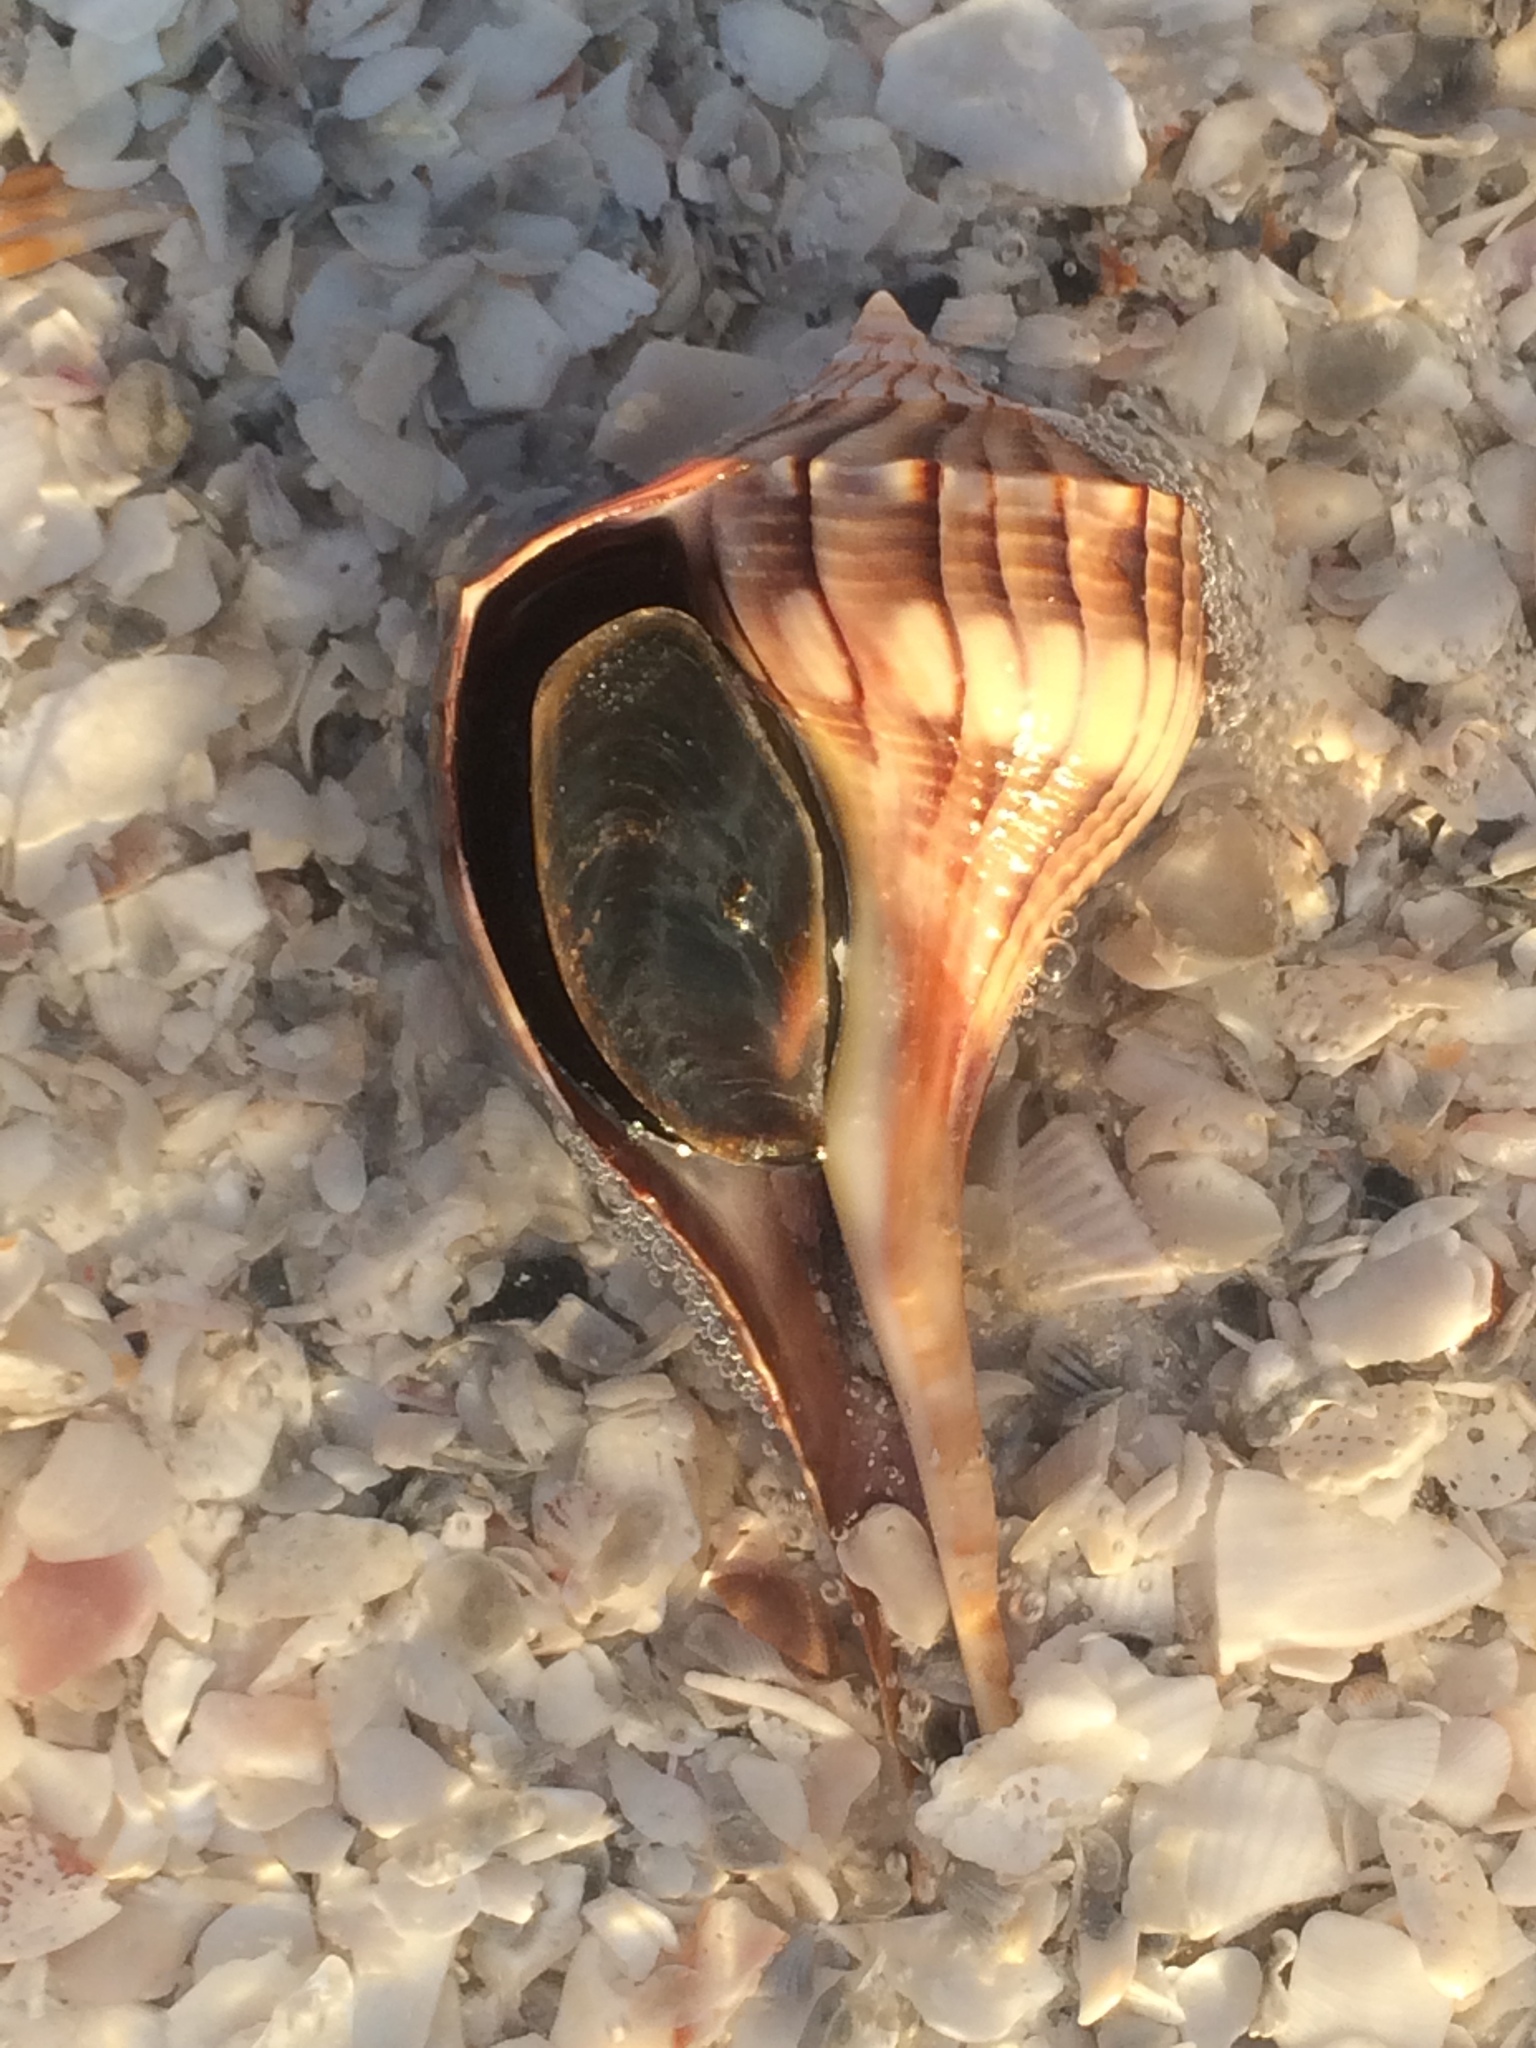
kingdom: Animalia
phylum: Mollusca
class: Gastropoda
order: Neogastropoda
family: Busyconidae
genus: Sinistrofulgur
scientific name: Sinistrofulgur sinistrum
